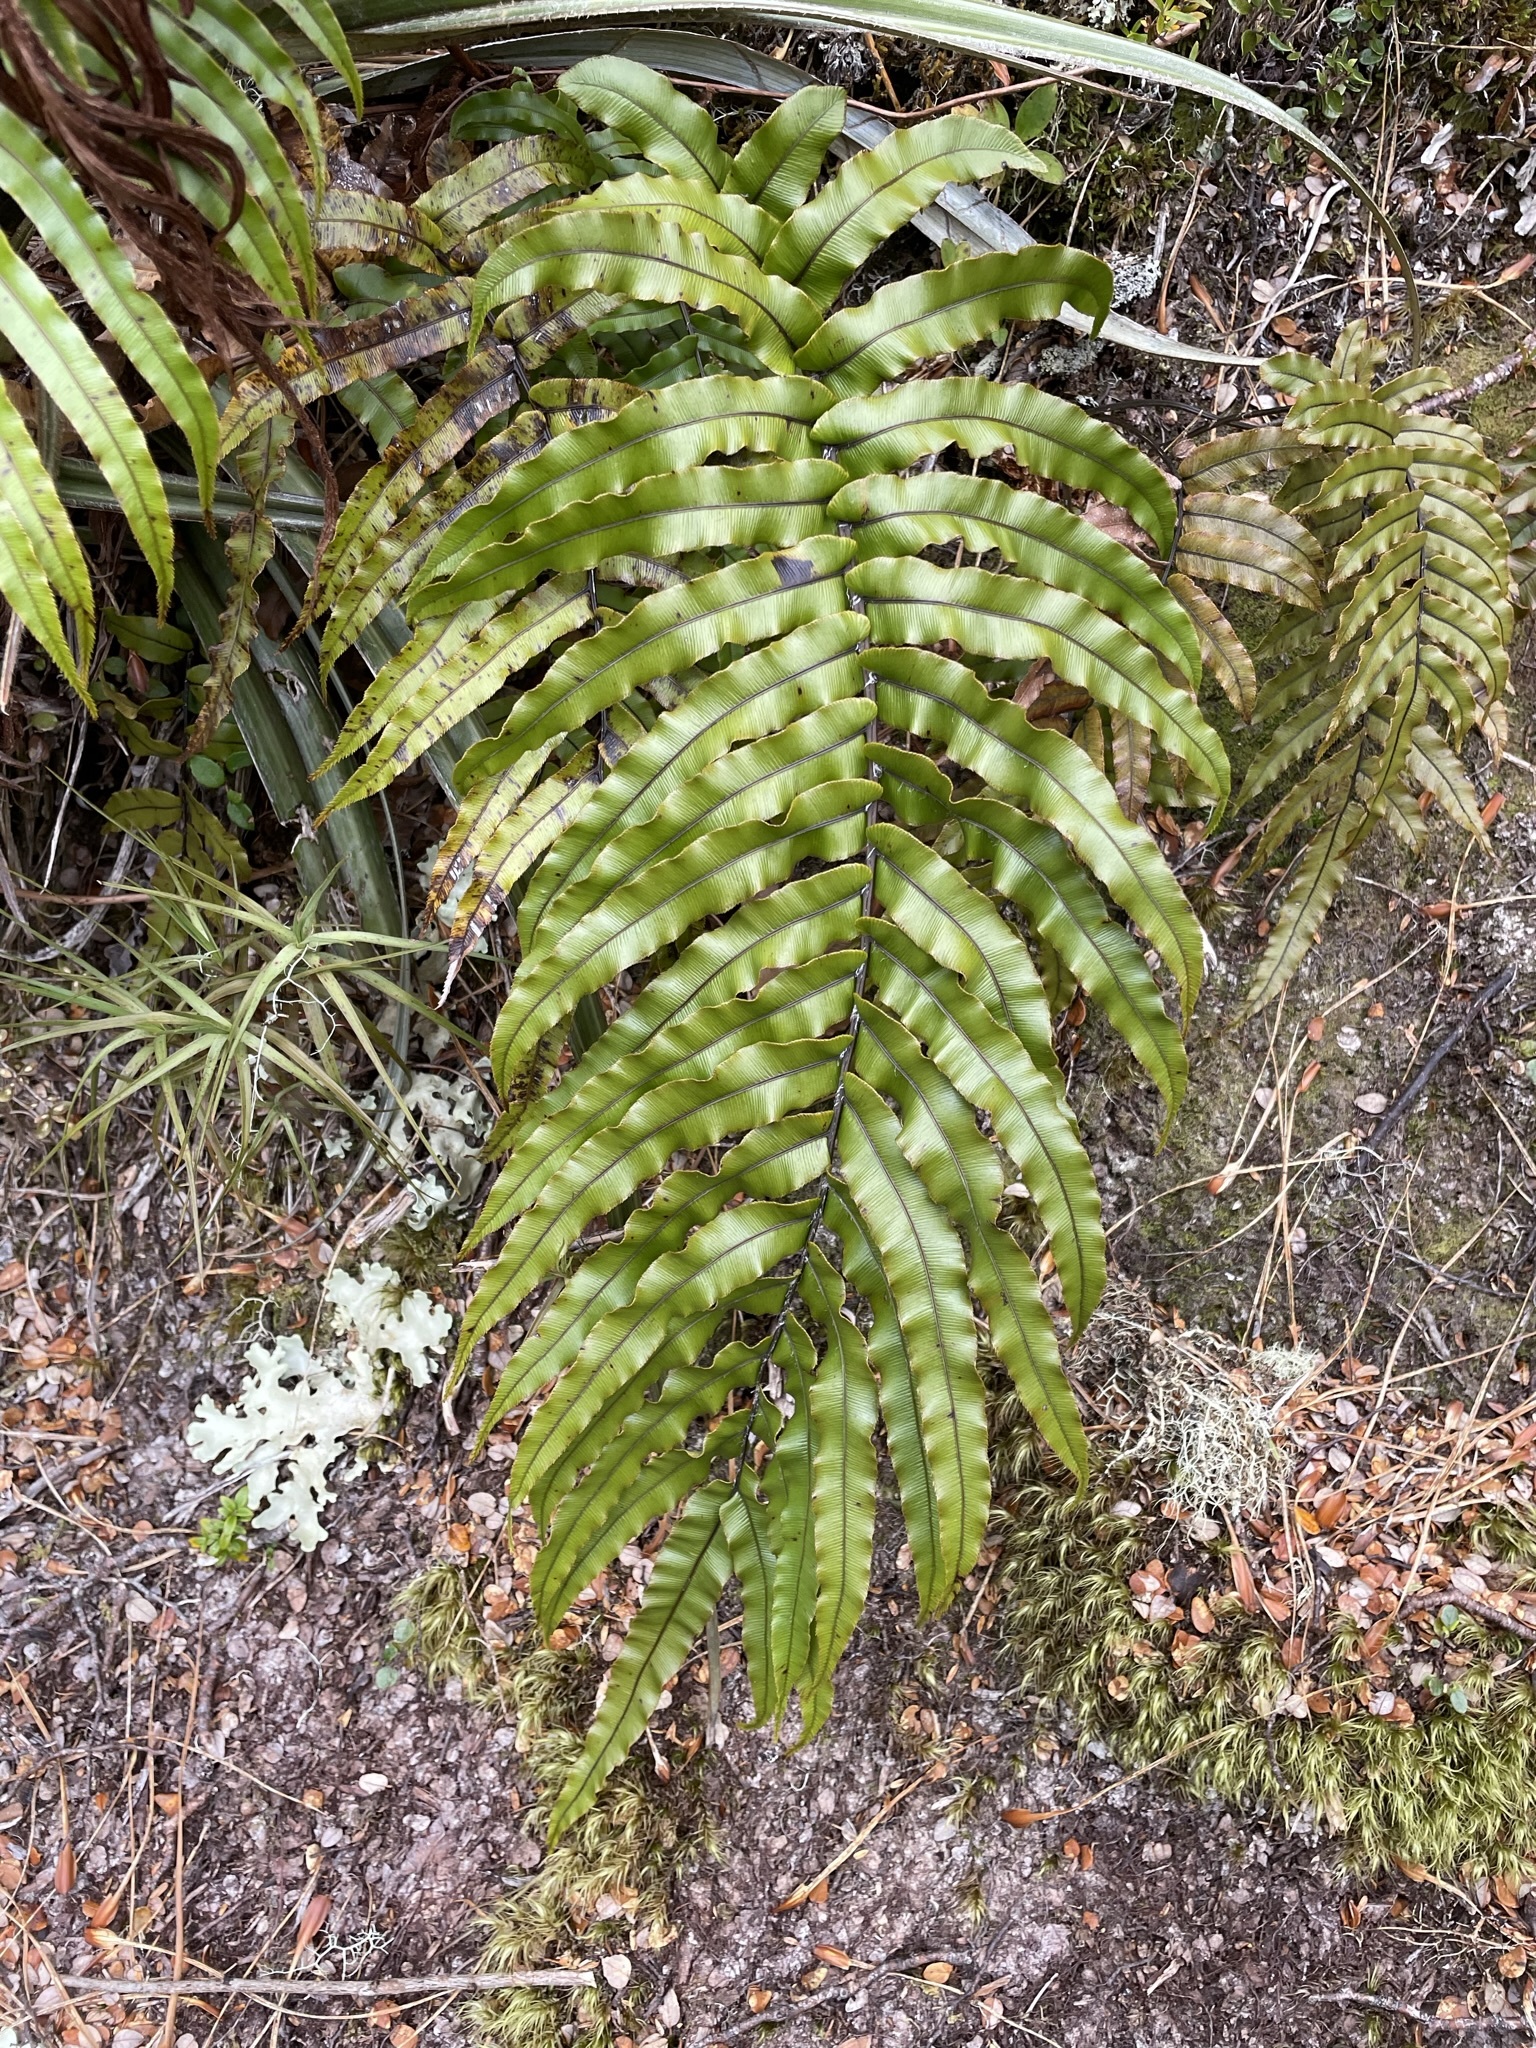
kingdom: Plantae
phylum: Tracheophyta
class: Polypodiopsida
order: Polypodiales
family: Blechnaceae
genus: Parablechnum
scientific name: Parablechnum montanum
